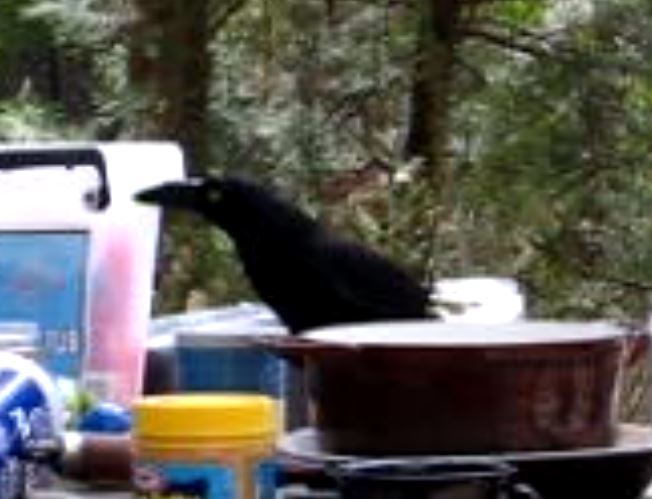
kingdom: Animalia
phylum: Chordata
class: Aves
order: Passeriformes
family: Cracticidae
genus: Strepera
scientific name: Strepera graculina
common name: Pied currawong
